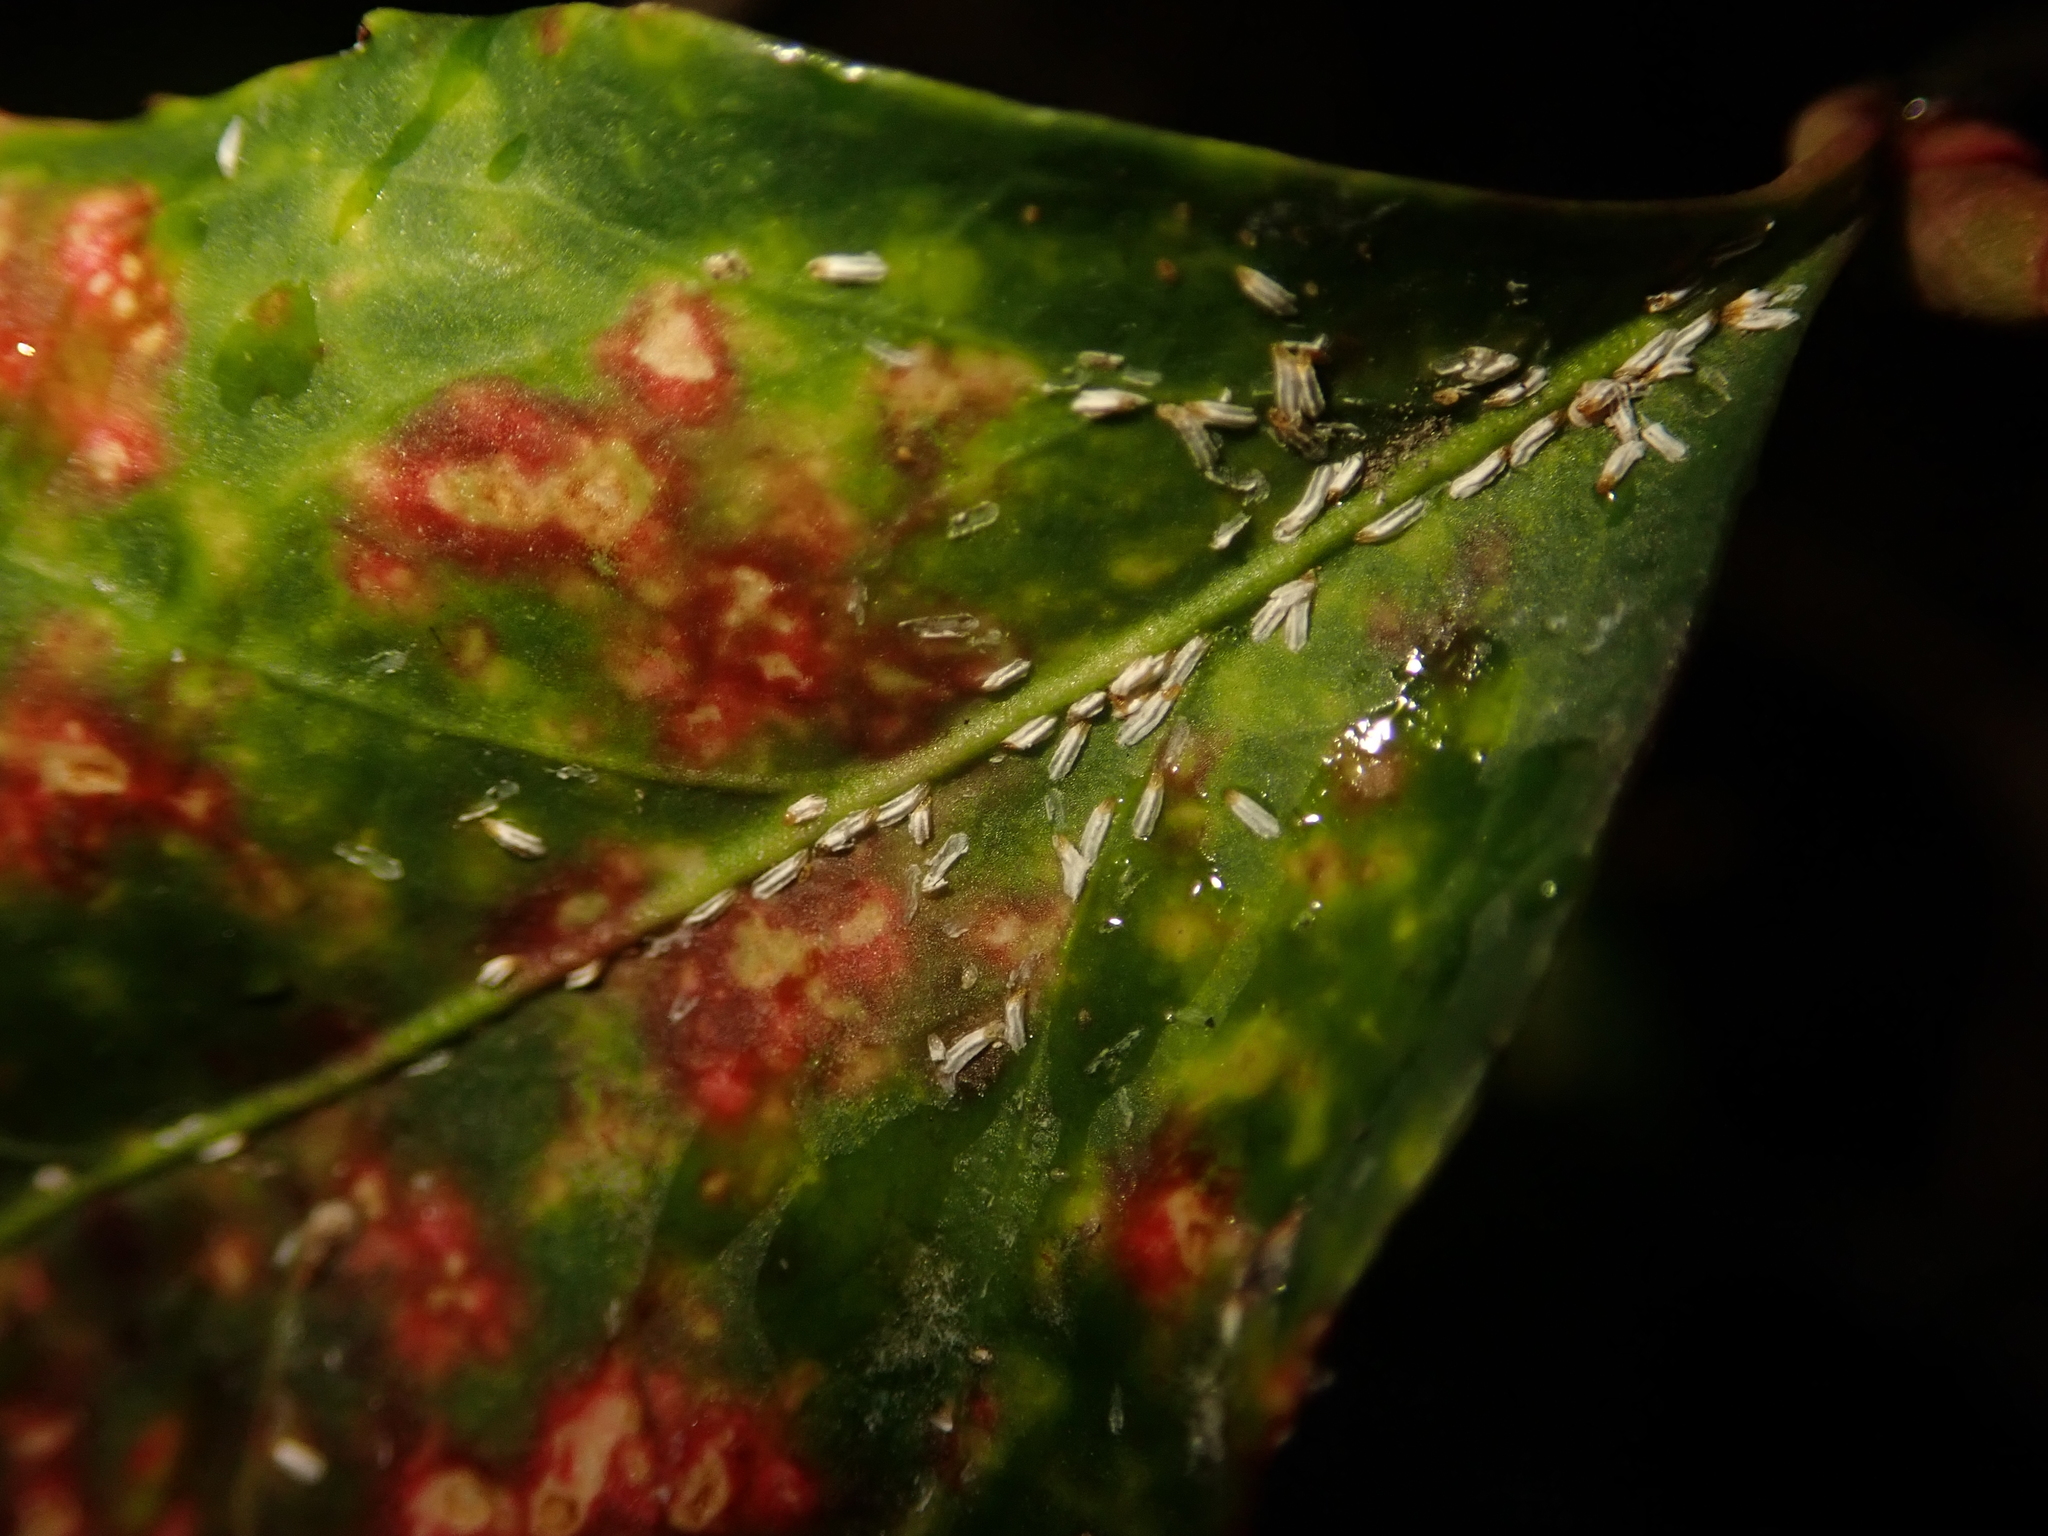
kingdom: Animalia
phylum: Arthropoda
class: Insecta
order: Hemiptera
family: Diaspididae
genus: Unaspis
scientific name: Unaspis euonymi
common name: Euonymus scale
